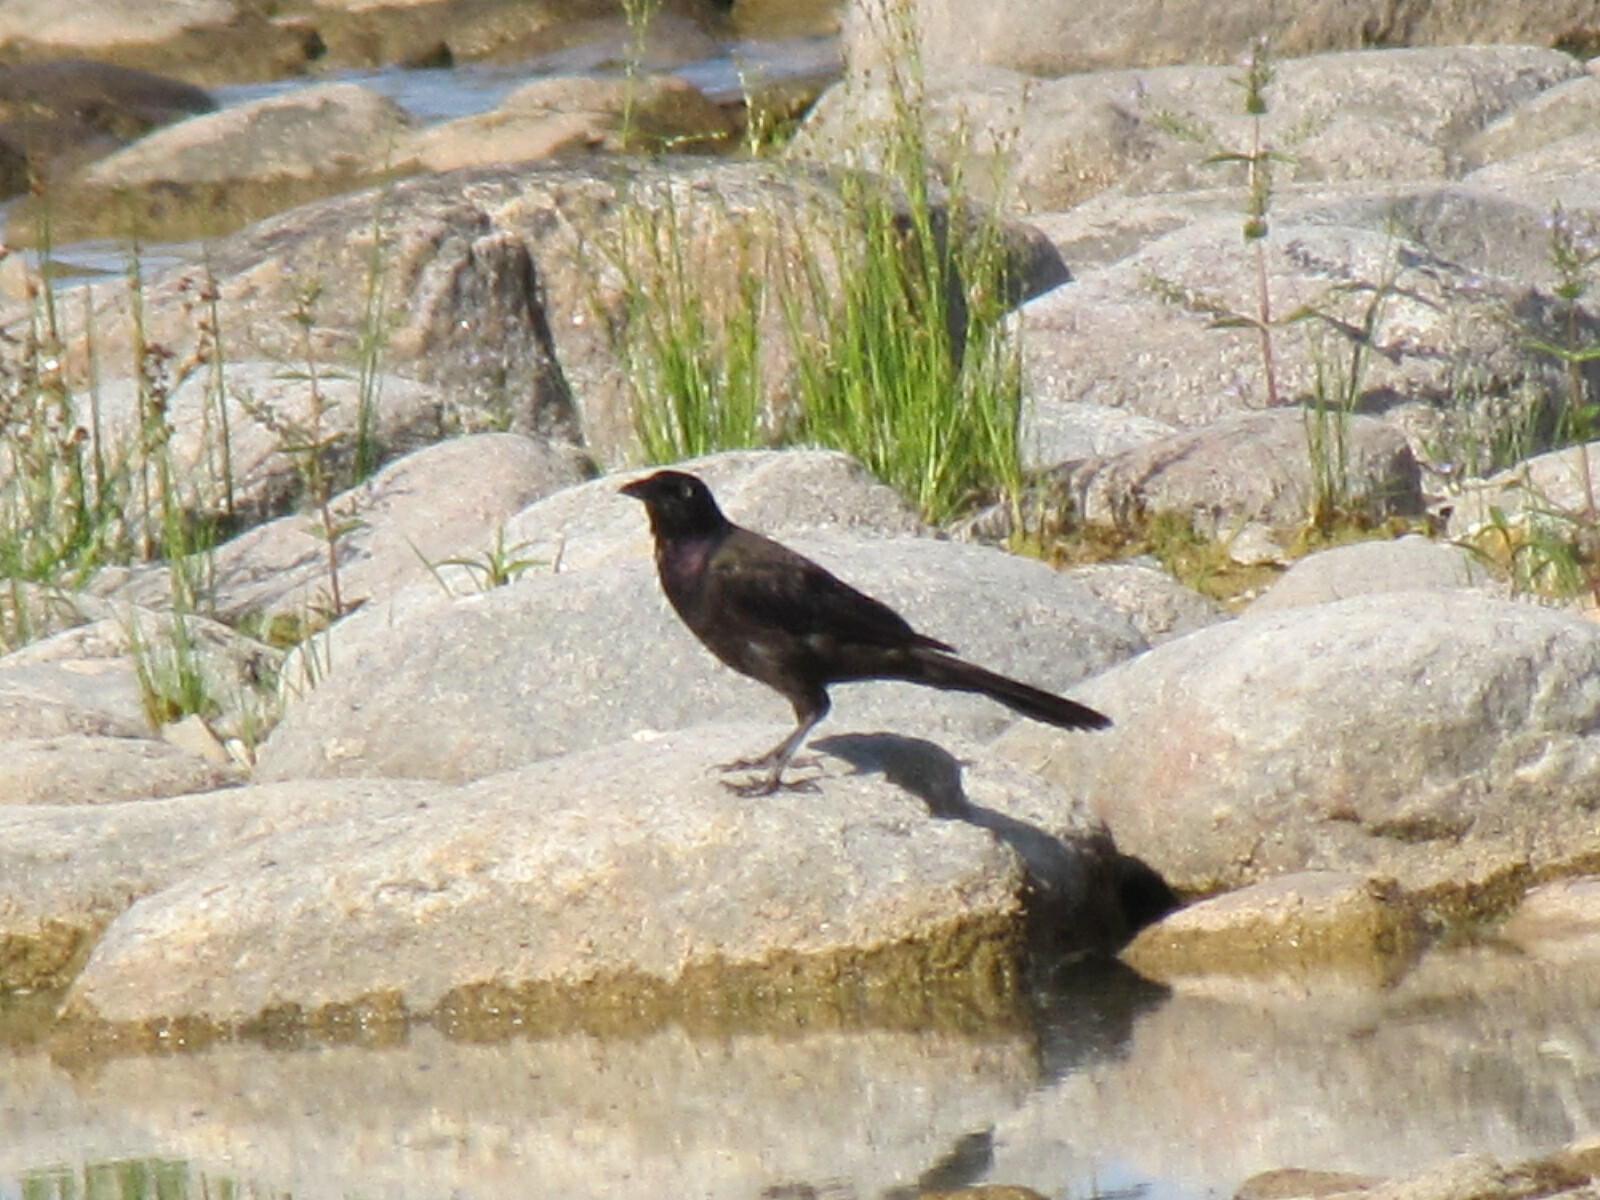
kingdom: Animalia
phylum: Chordata
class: Aves
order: Passeriformes
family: Icteridae
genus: Quiscalus
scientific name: Quiscalus quiscula
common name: Common grackle
